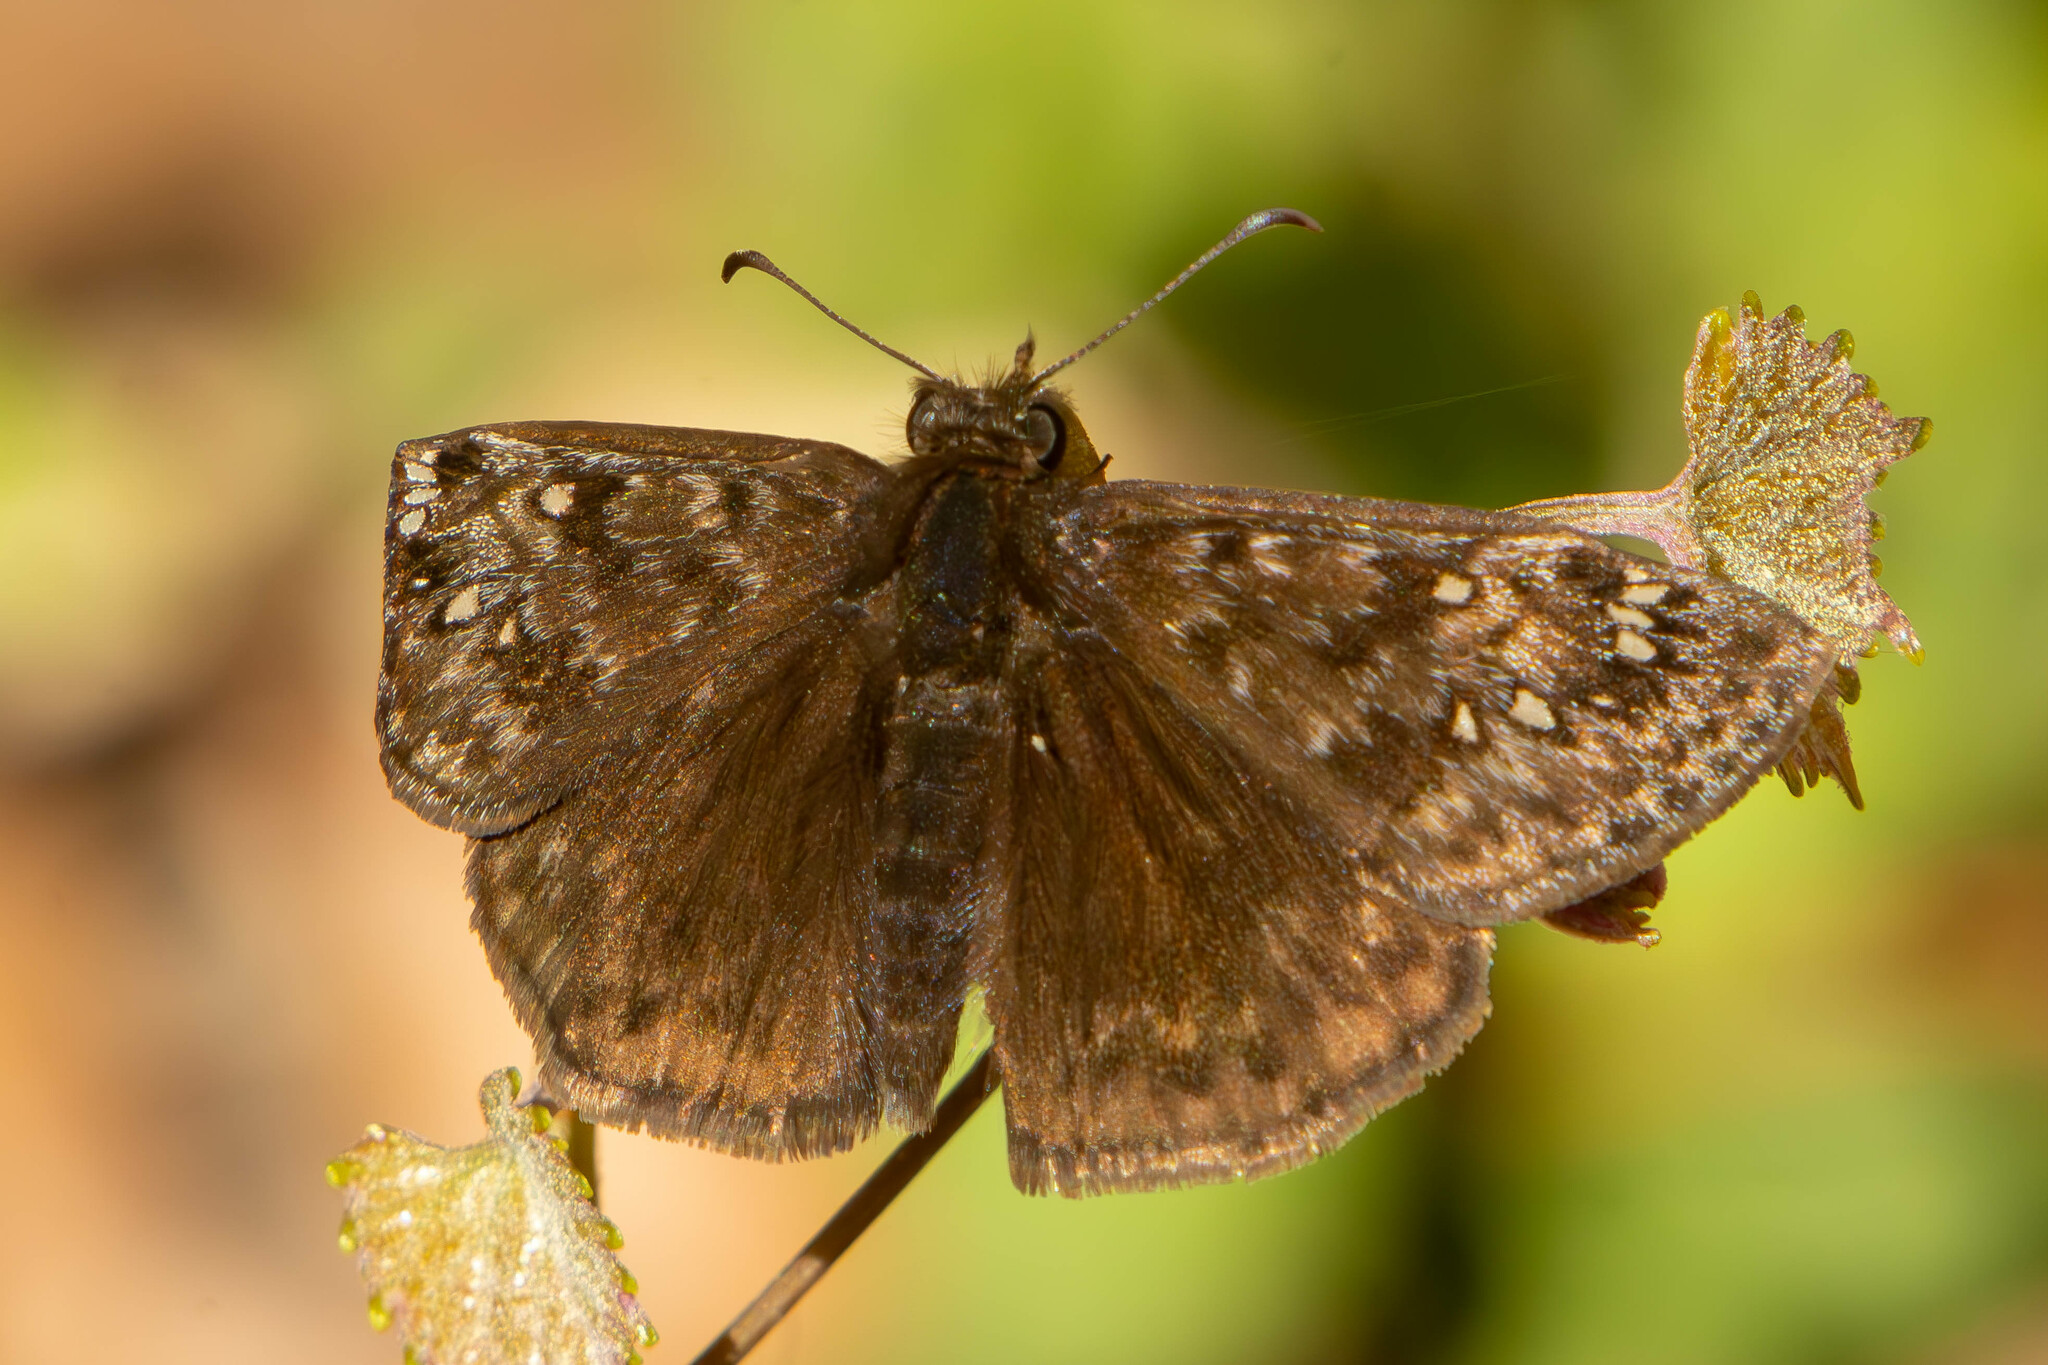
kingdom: Animalia
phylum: Arthropoda
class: Insecta
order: Lepidoptera
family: Hesperiidae
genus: Erynnis
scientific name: Erynnis juvenalis
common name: Juvenal's duskywing
